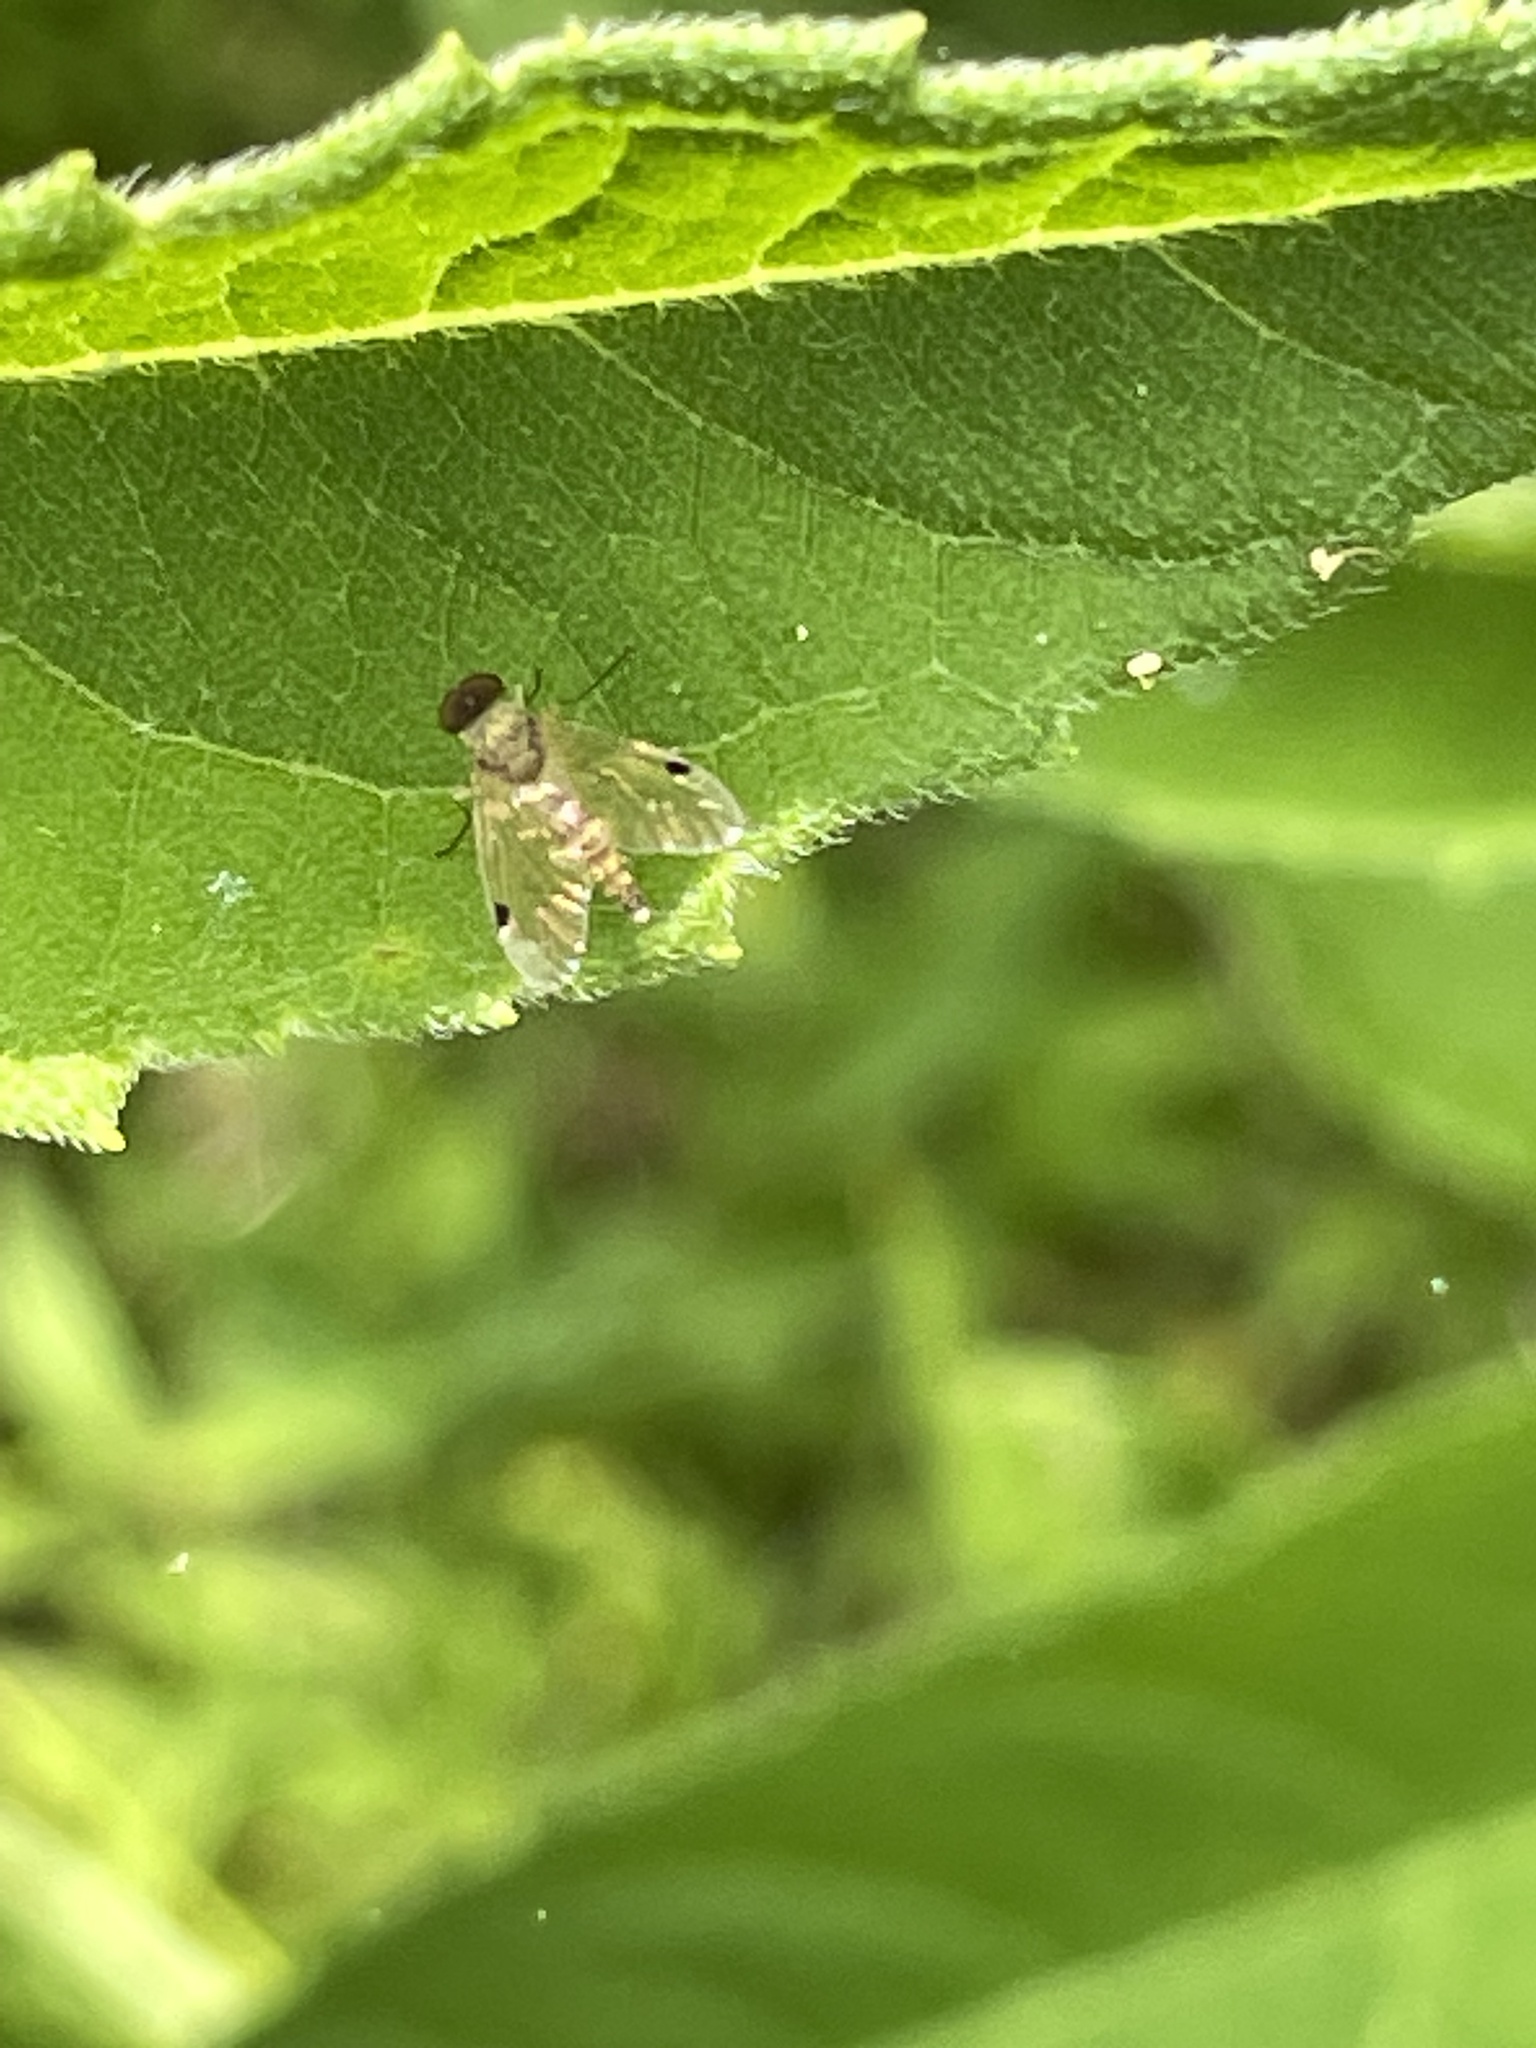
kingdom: Animalia
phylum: Arthropoda
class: Insecta
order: Diptera
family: Rhagionidae
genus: Chrysopilus
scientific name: Chrysopilus modestus
